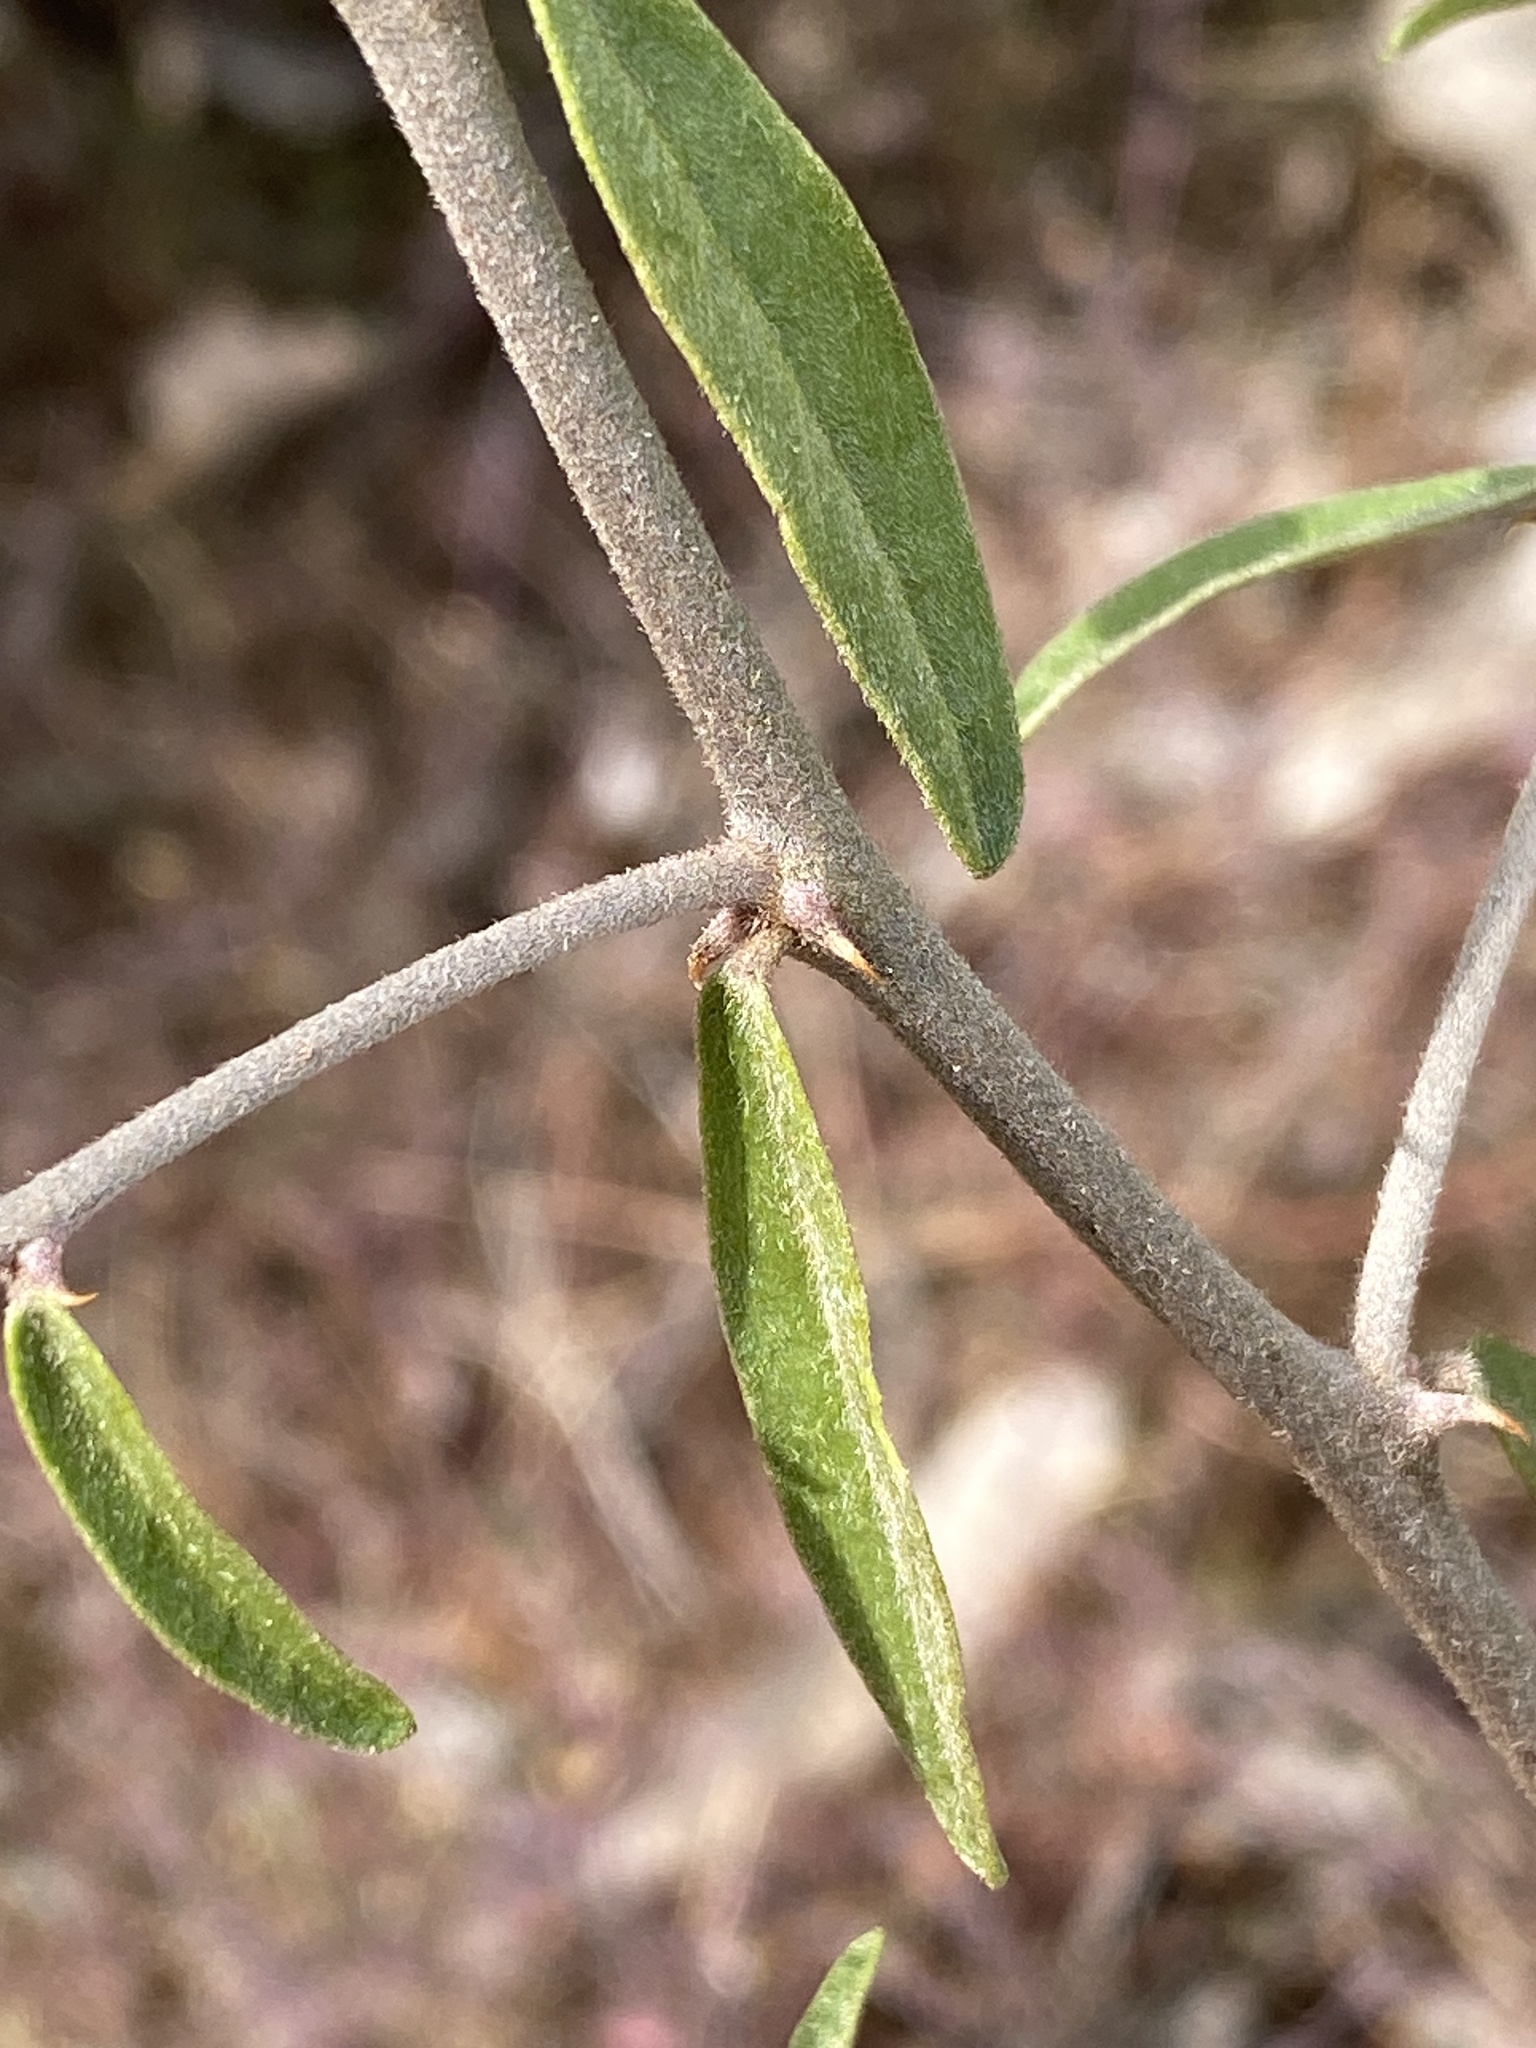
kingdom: Plantae
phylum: Tracheophyta
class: Magnoliopsida
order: Brassicales
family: Capparaceae
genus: Capparis
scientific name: Capparis lasiantha
